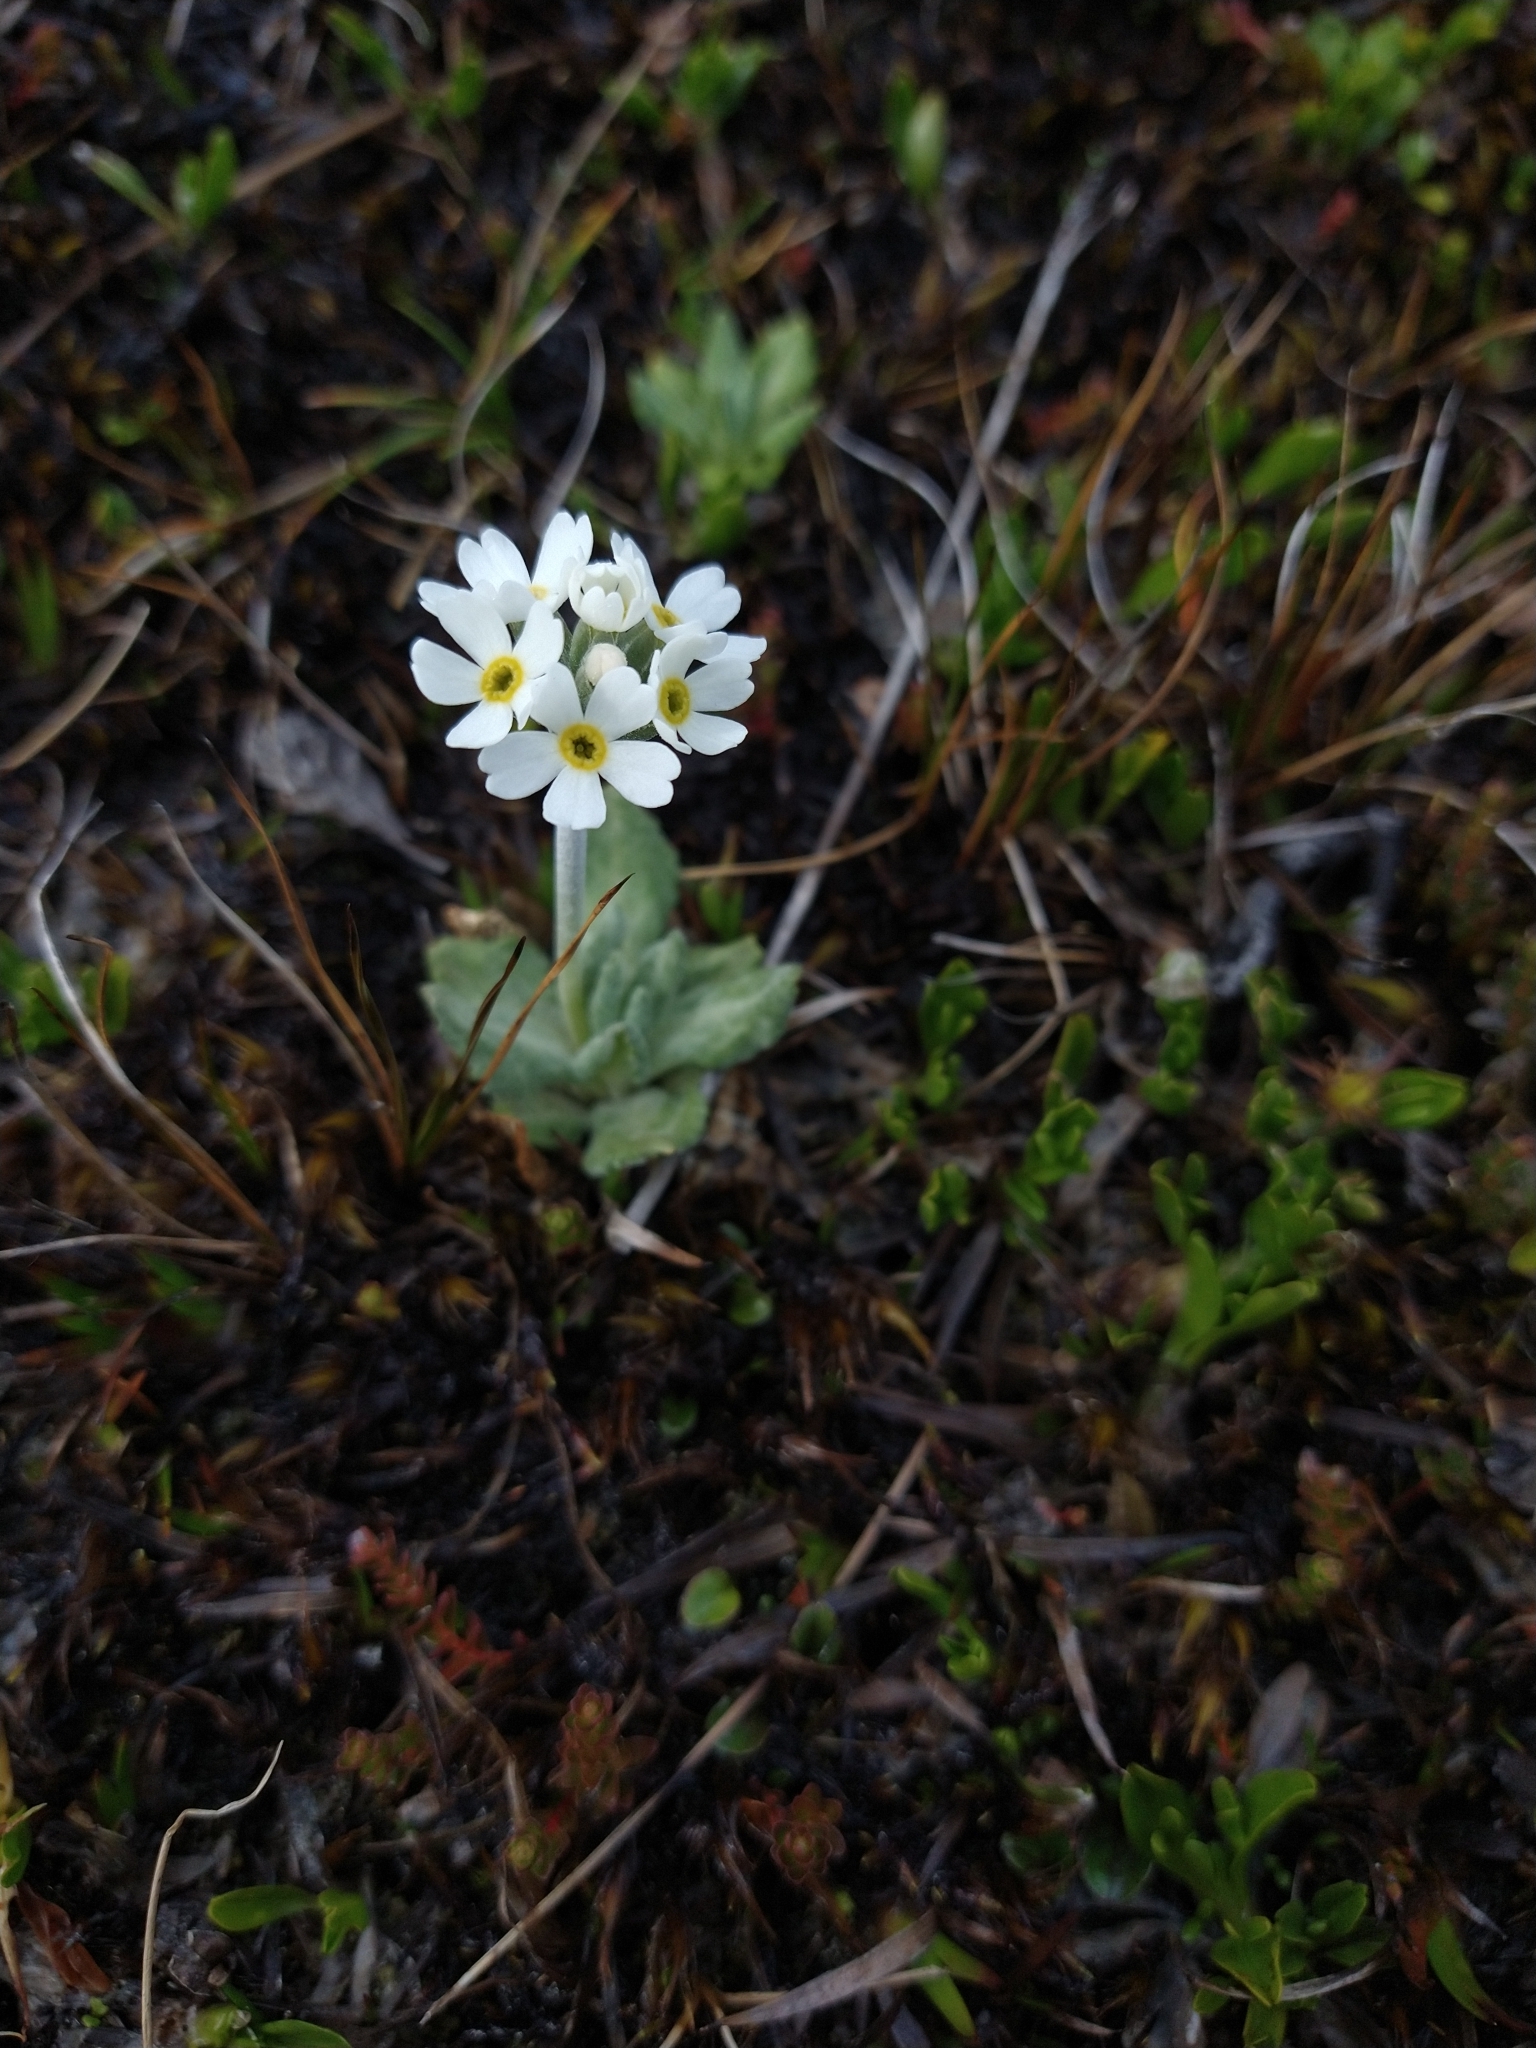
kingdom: Plantae
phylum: Tracheophyta
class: Magnoliopsida
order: Ericales
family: Primulaceae
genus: Primula
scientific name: Primula magellanica
